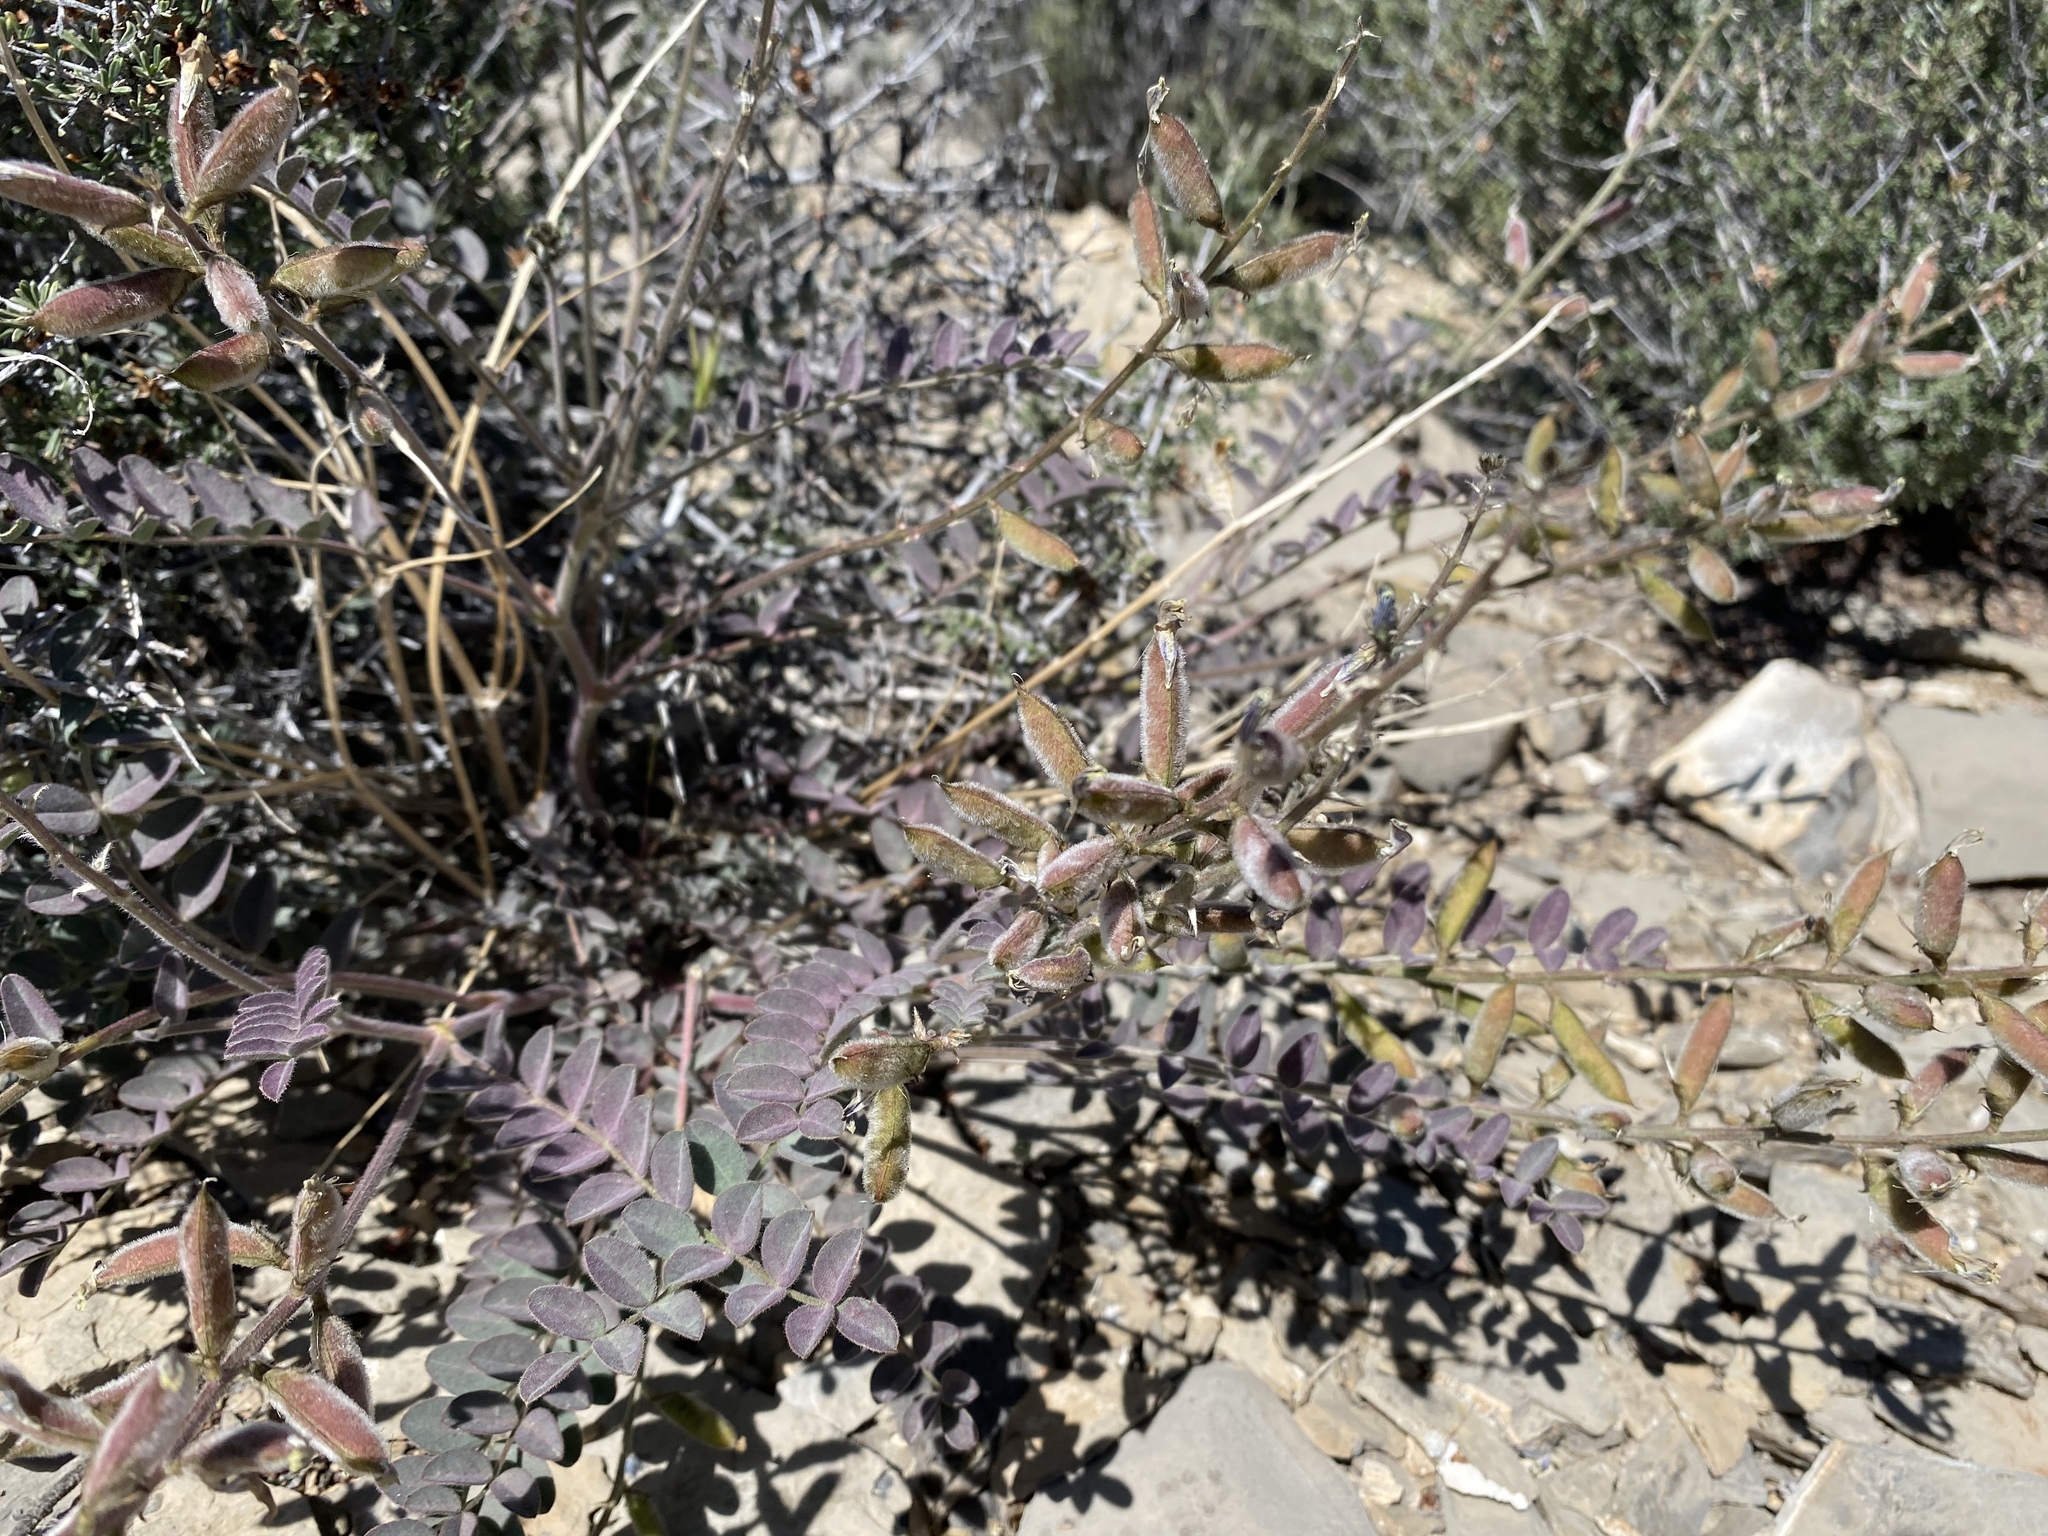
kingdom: Plantae
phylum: Tracheophyta
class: Magnoliopsida
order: Fabales
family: Fabaceae
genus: Astragalus
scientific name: Astragalus minthorniae
